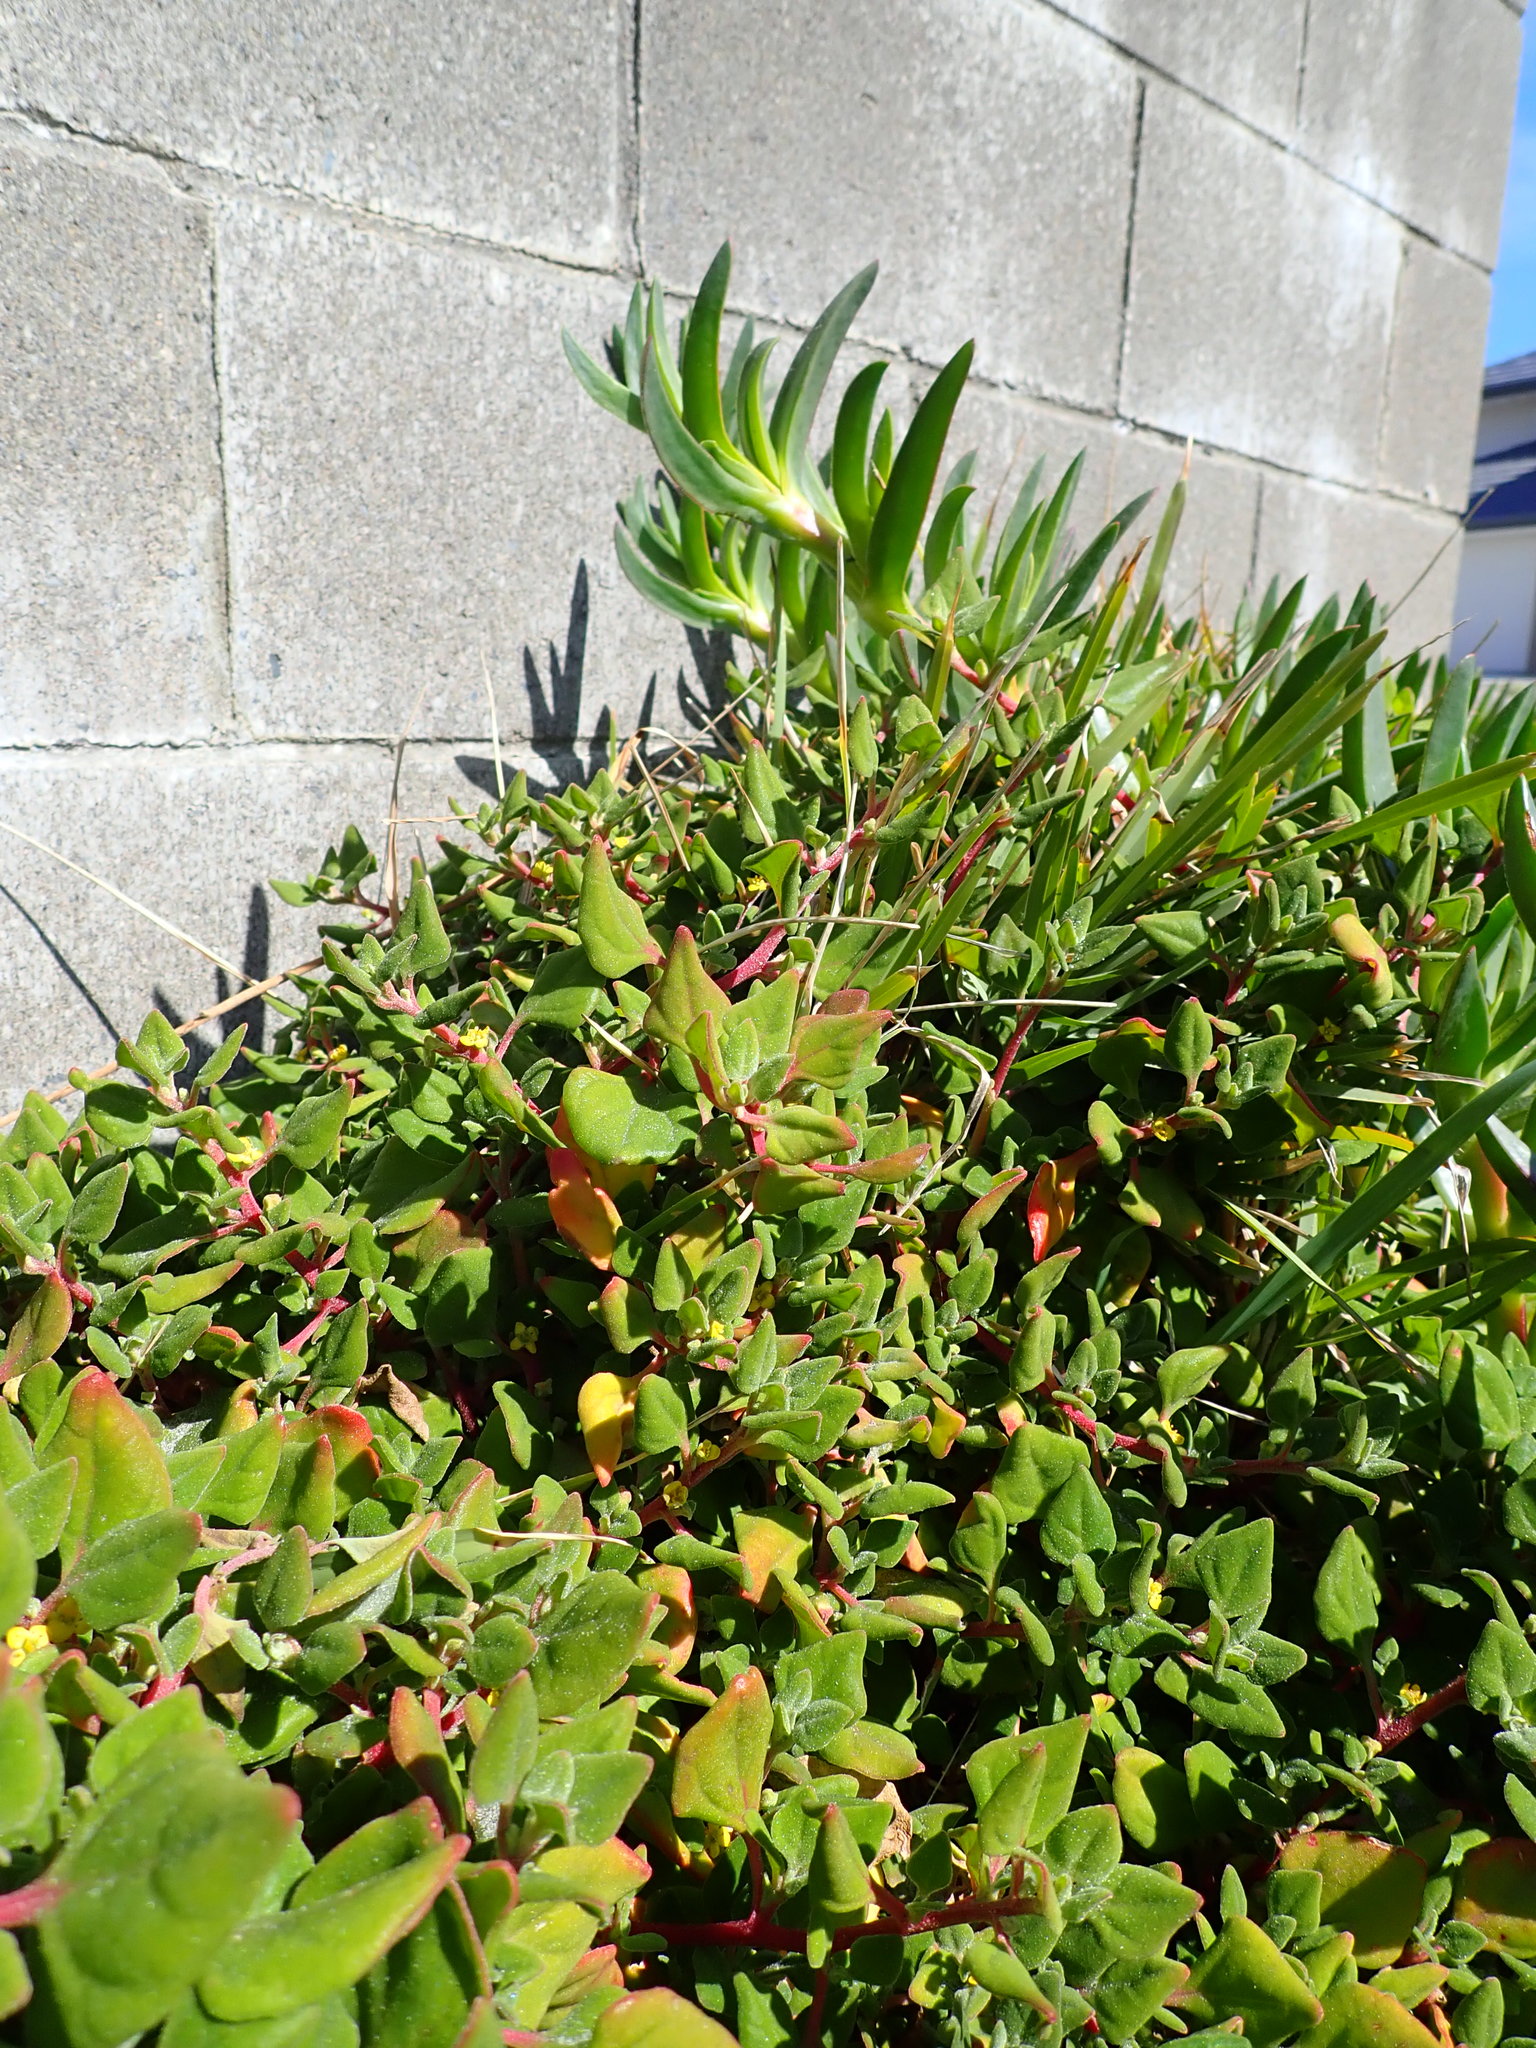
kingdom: Plantae
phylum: Tracheophyta
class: Magnoliopsida
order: Caryophyllales
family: Aizoaceae
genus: Tetragonia
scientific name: Tetragonia implexicoma
